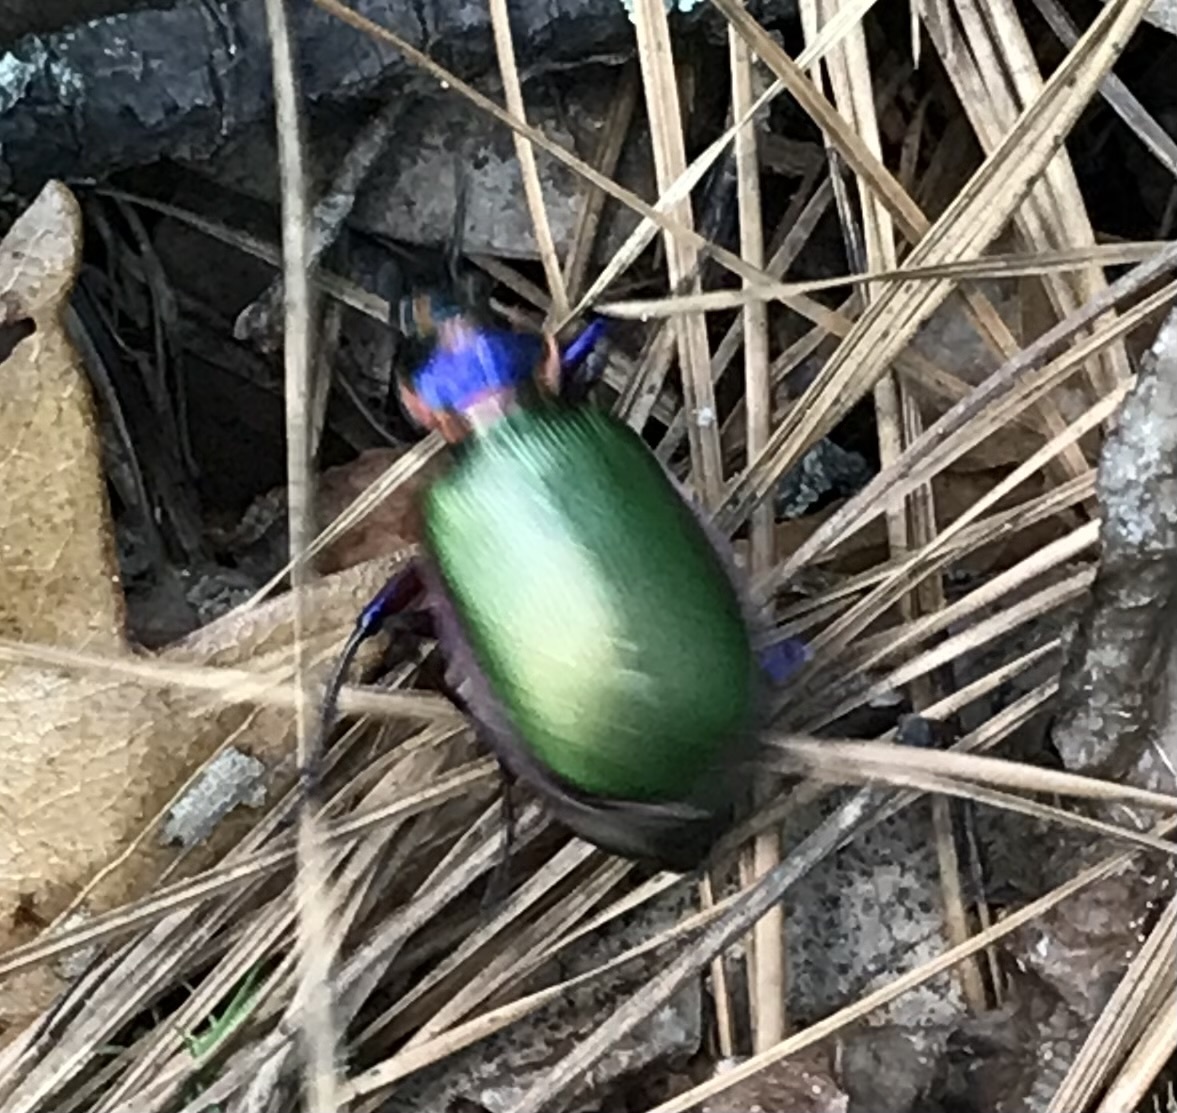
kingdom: Animalia
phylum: Arthropoda
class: Insecta
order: Coleoptera
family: Carabidae
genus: Calosoma
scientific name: Calosoma scrutator
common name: Fiery searcher beetle
